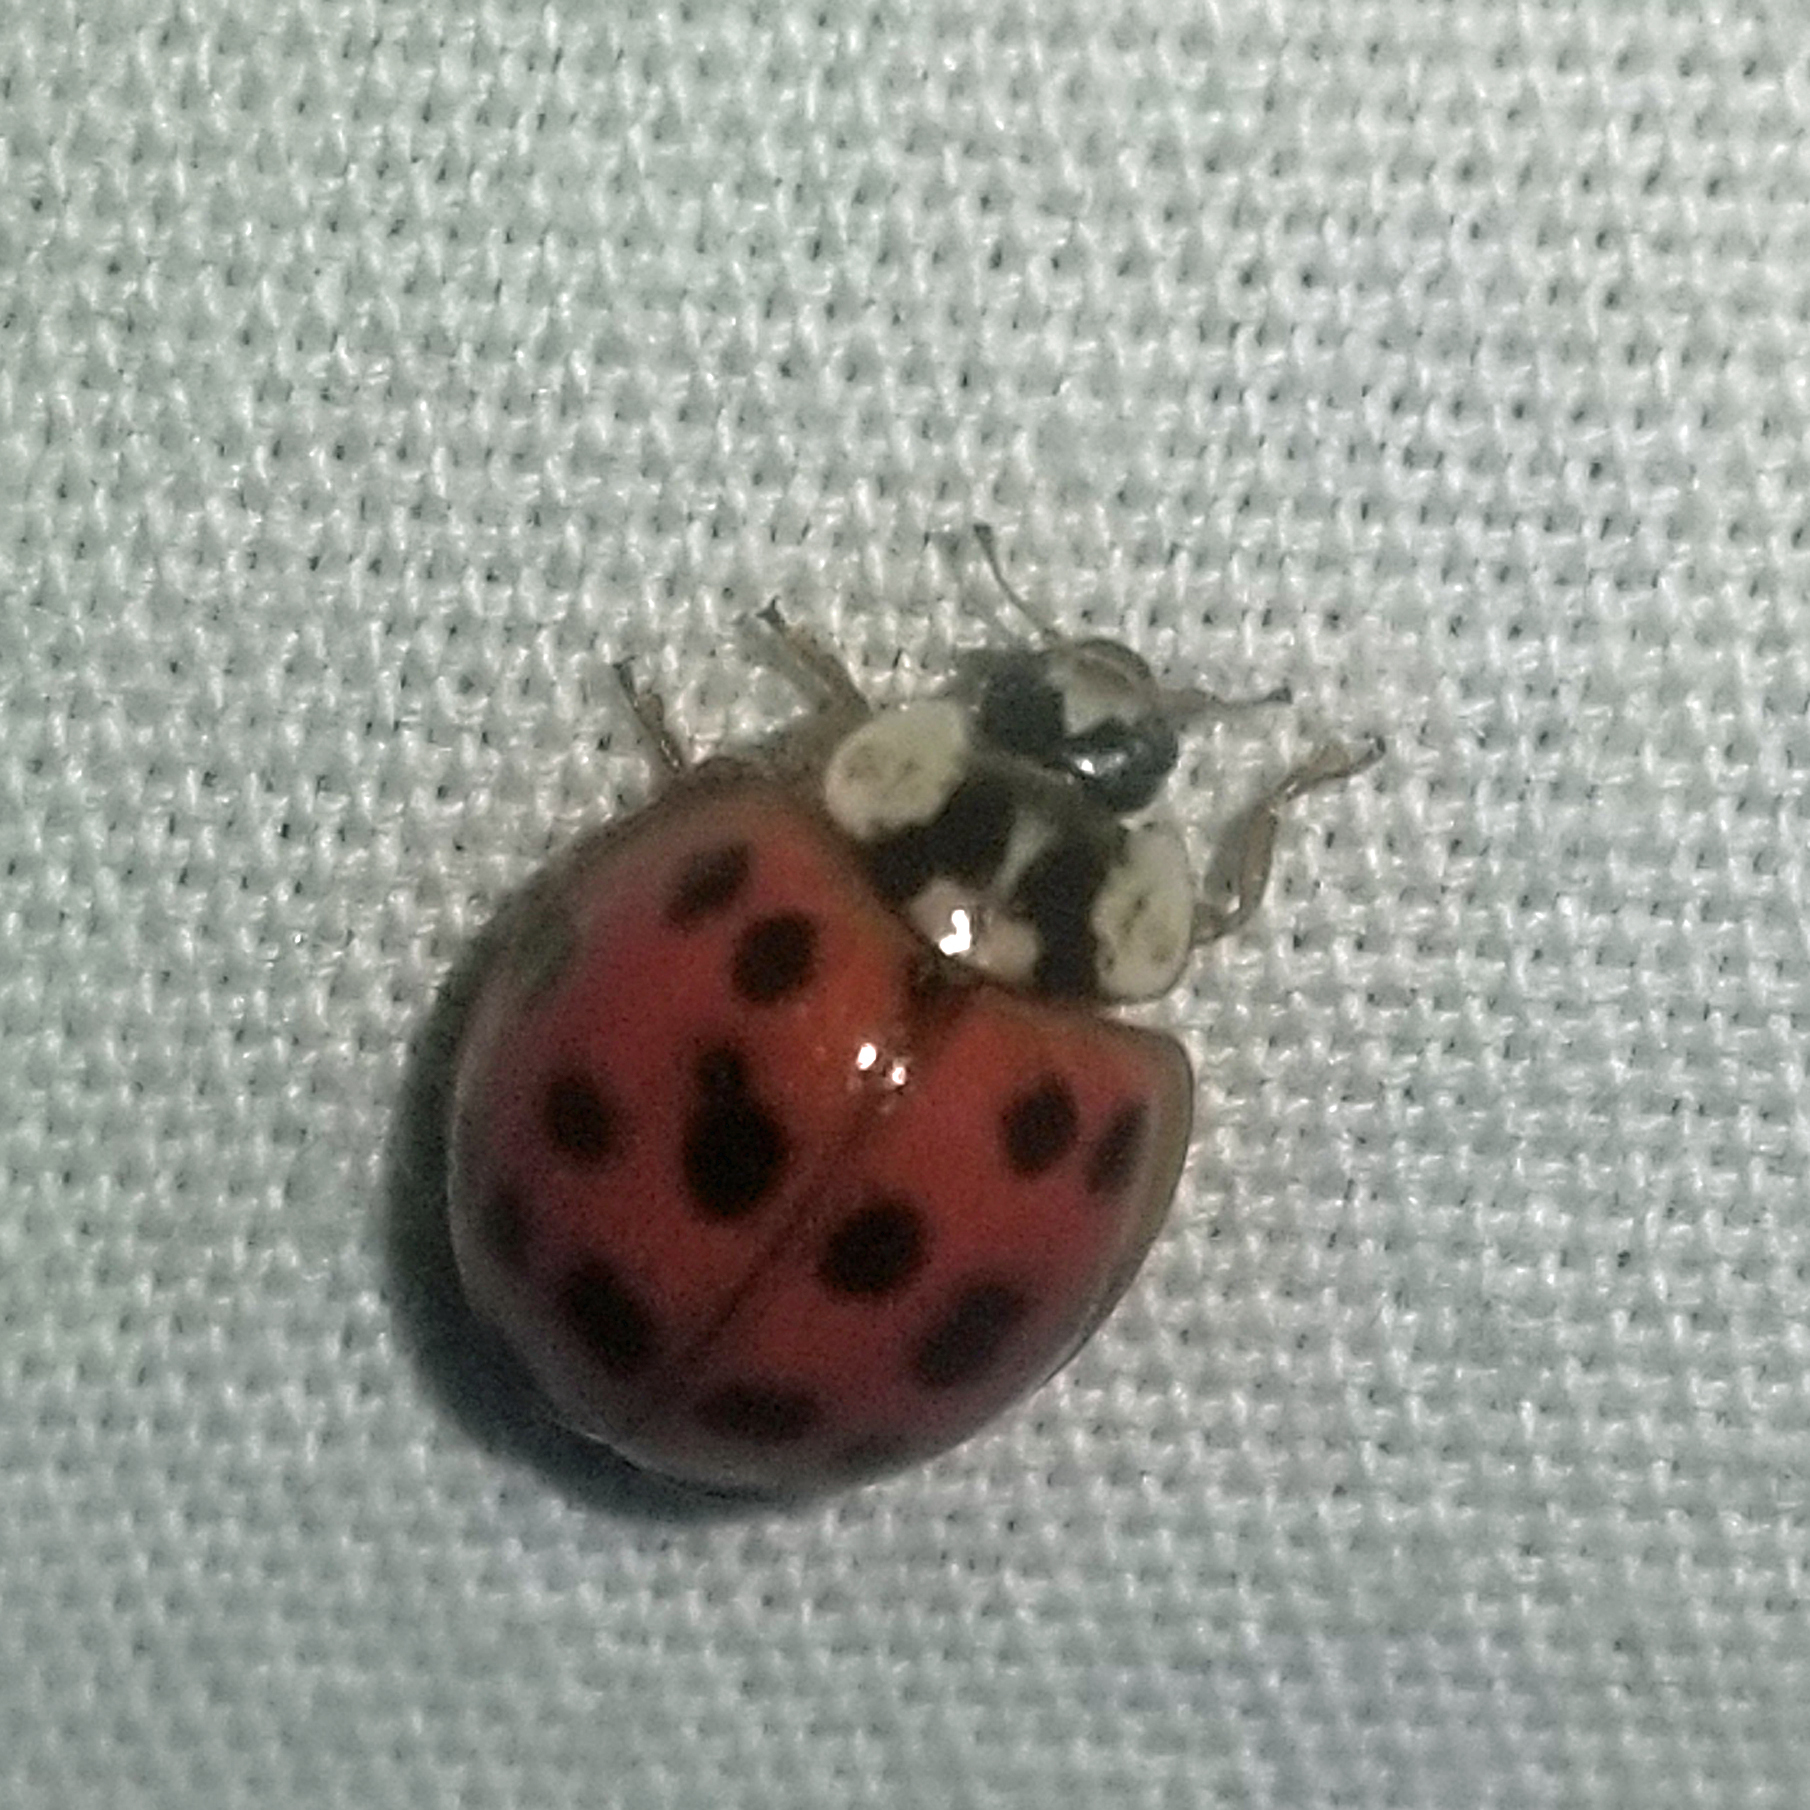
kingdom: Animalia
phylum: Arthropoda
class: Insecta
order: Coleoptera
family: Coccinellidae
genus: Harmonia
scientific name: Harmonia axyridis
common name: Harlequin ladybird
